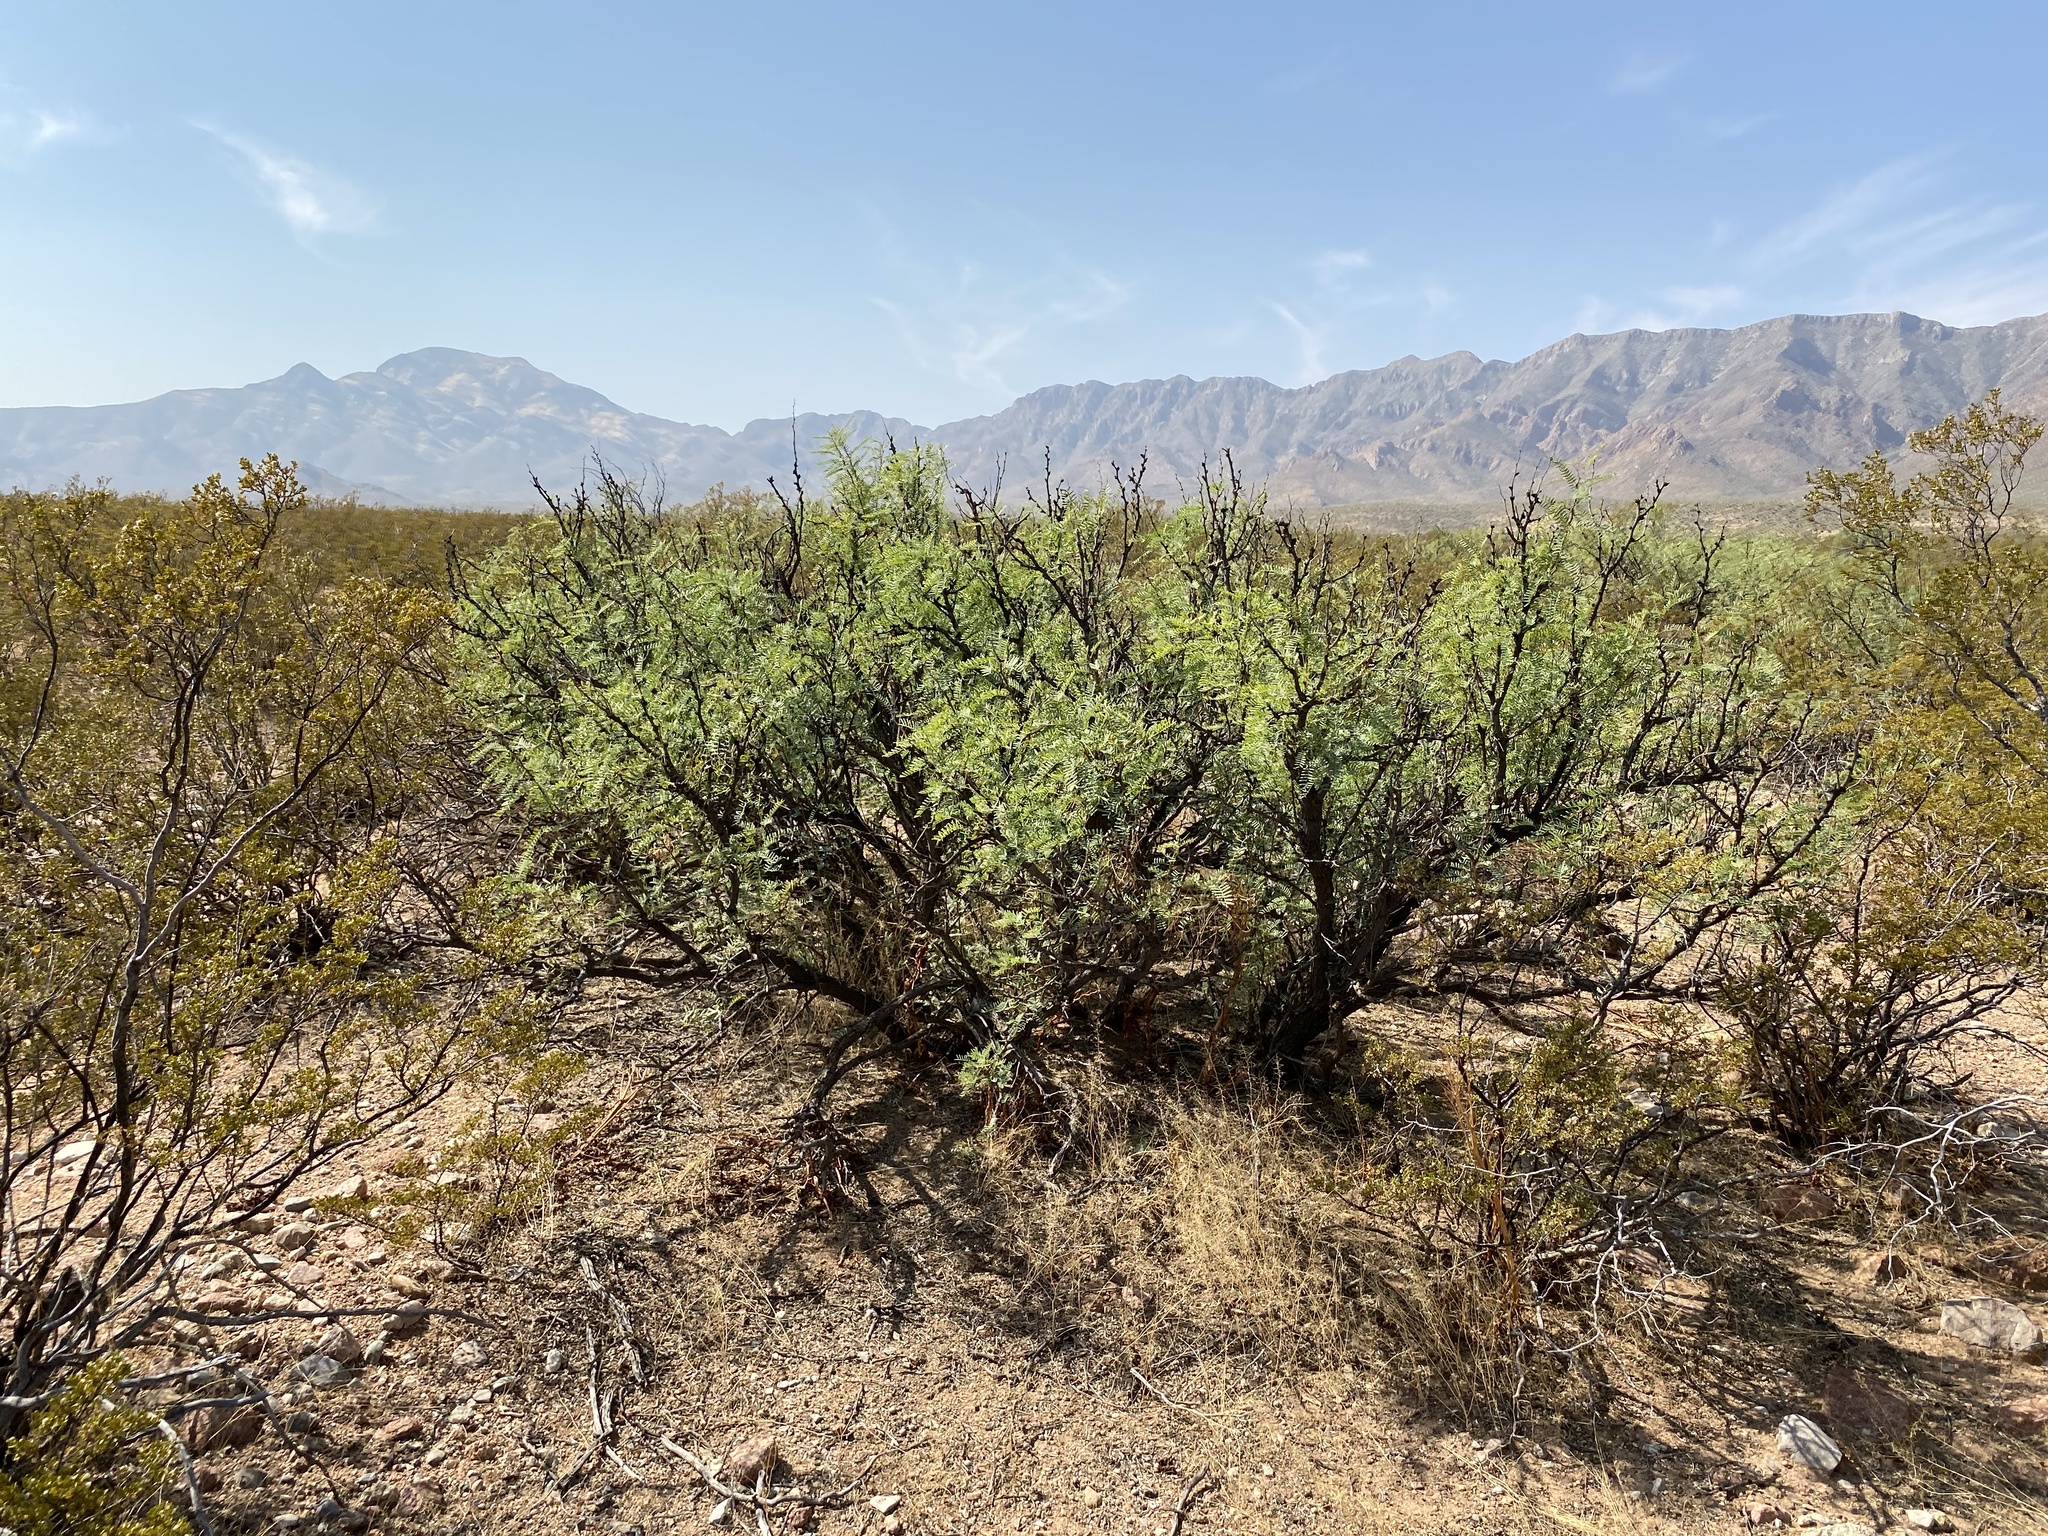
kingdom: Plantae
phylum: Tracheophyta
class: Magnoliopsida
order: Fabales
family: Fabaceae
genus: Prosopis
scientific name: Prosopis glandulosa
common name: Honey mesquite
